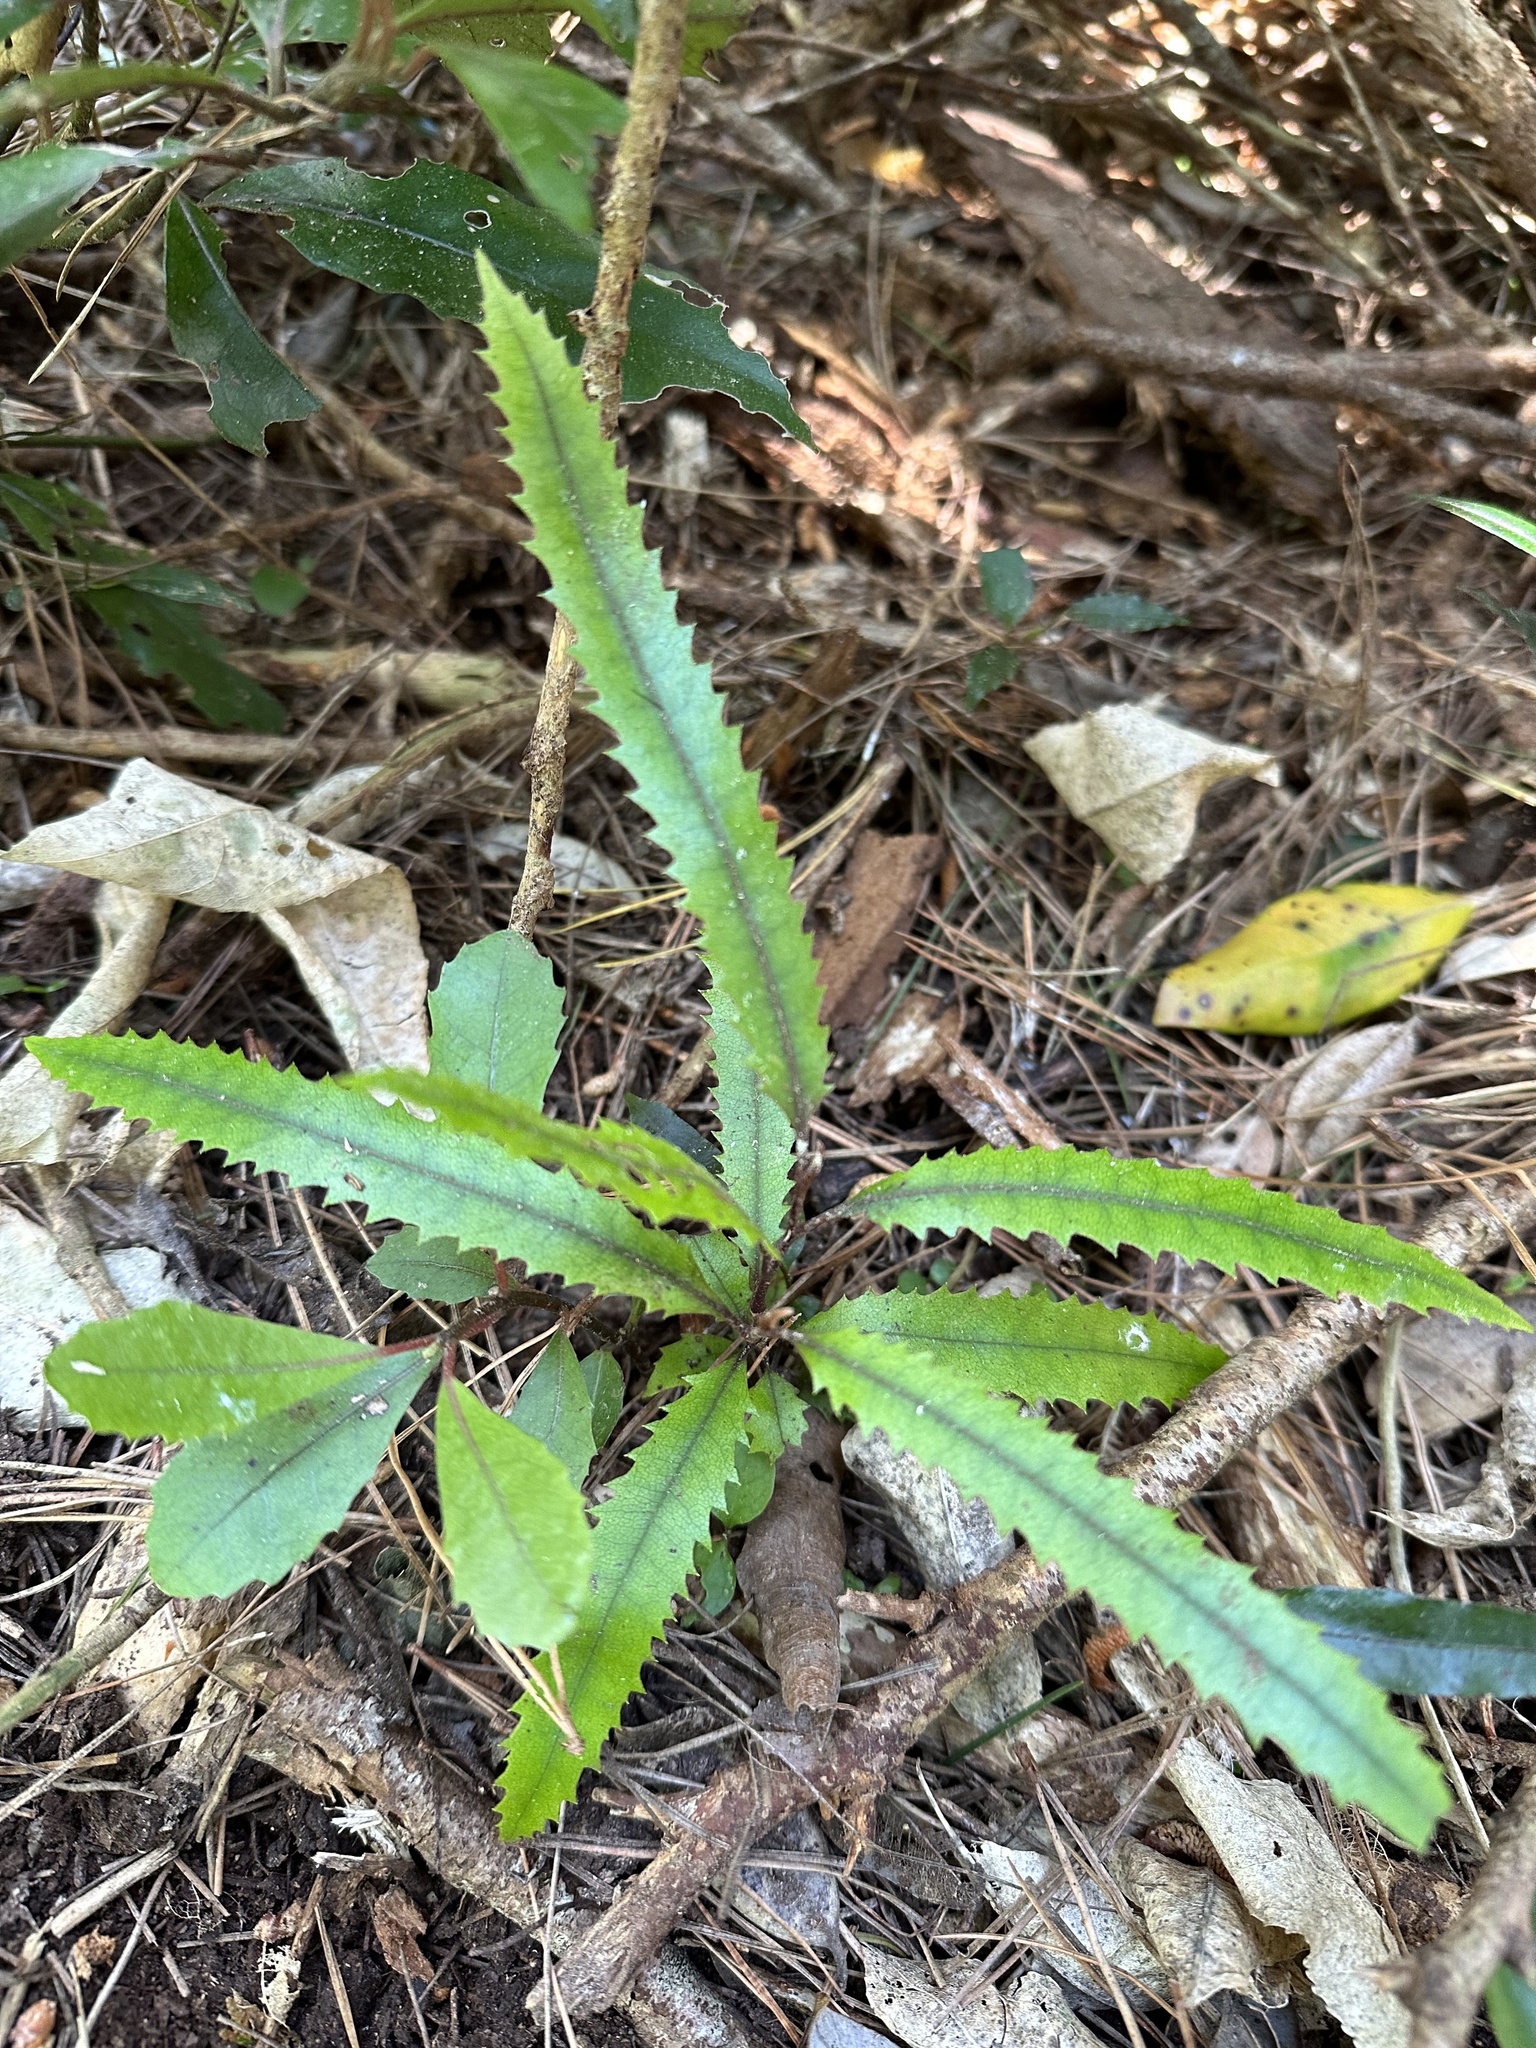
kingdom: Plantae
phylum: Tracheophyta
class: Magnoliopsida
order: Proteales
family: Proteaceae
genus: Knightia
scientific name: Knightia excelsa
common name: New zealand-honeysuckle
